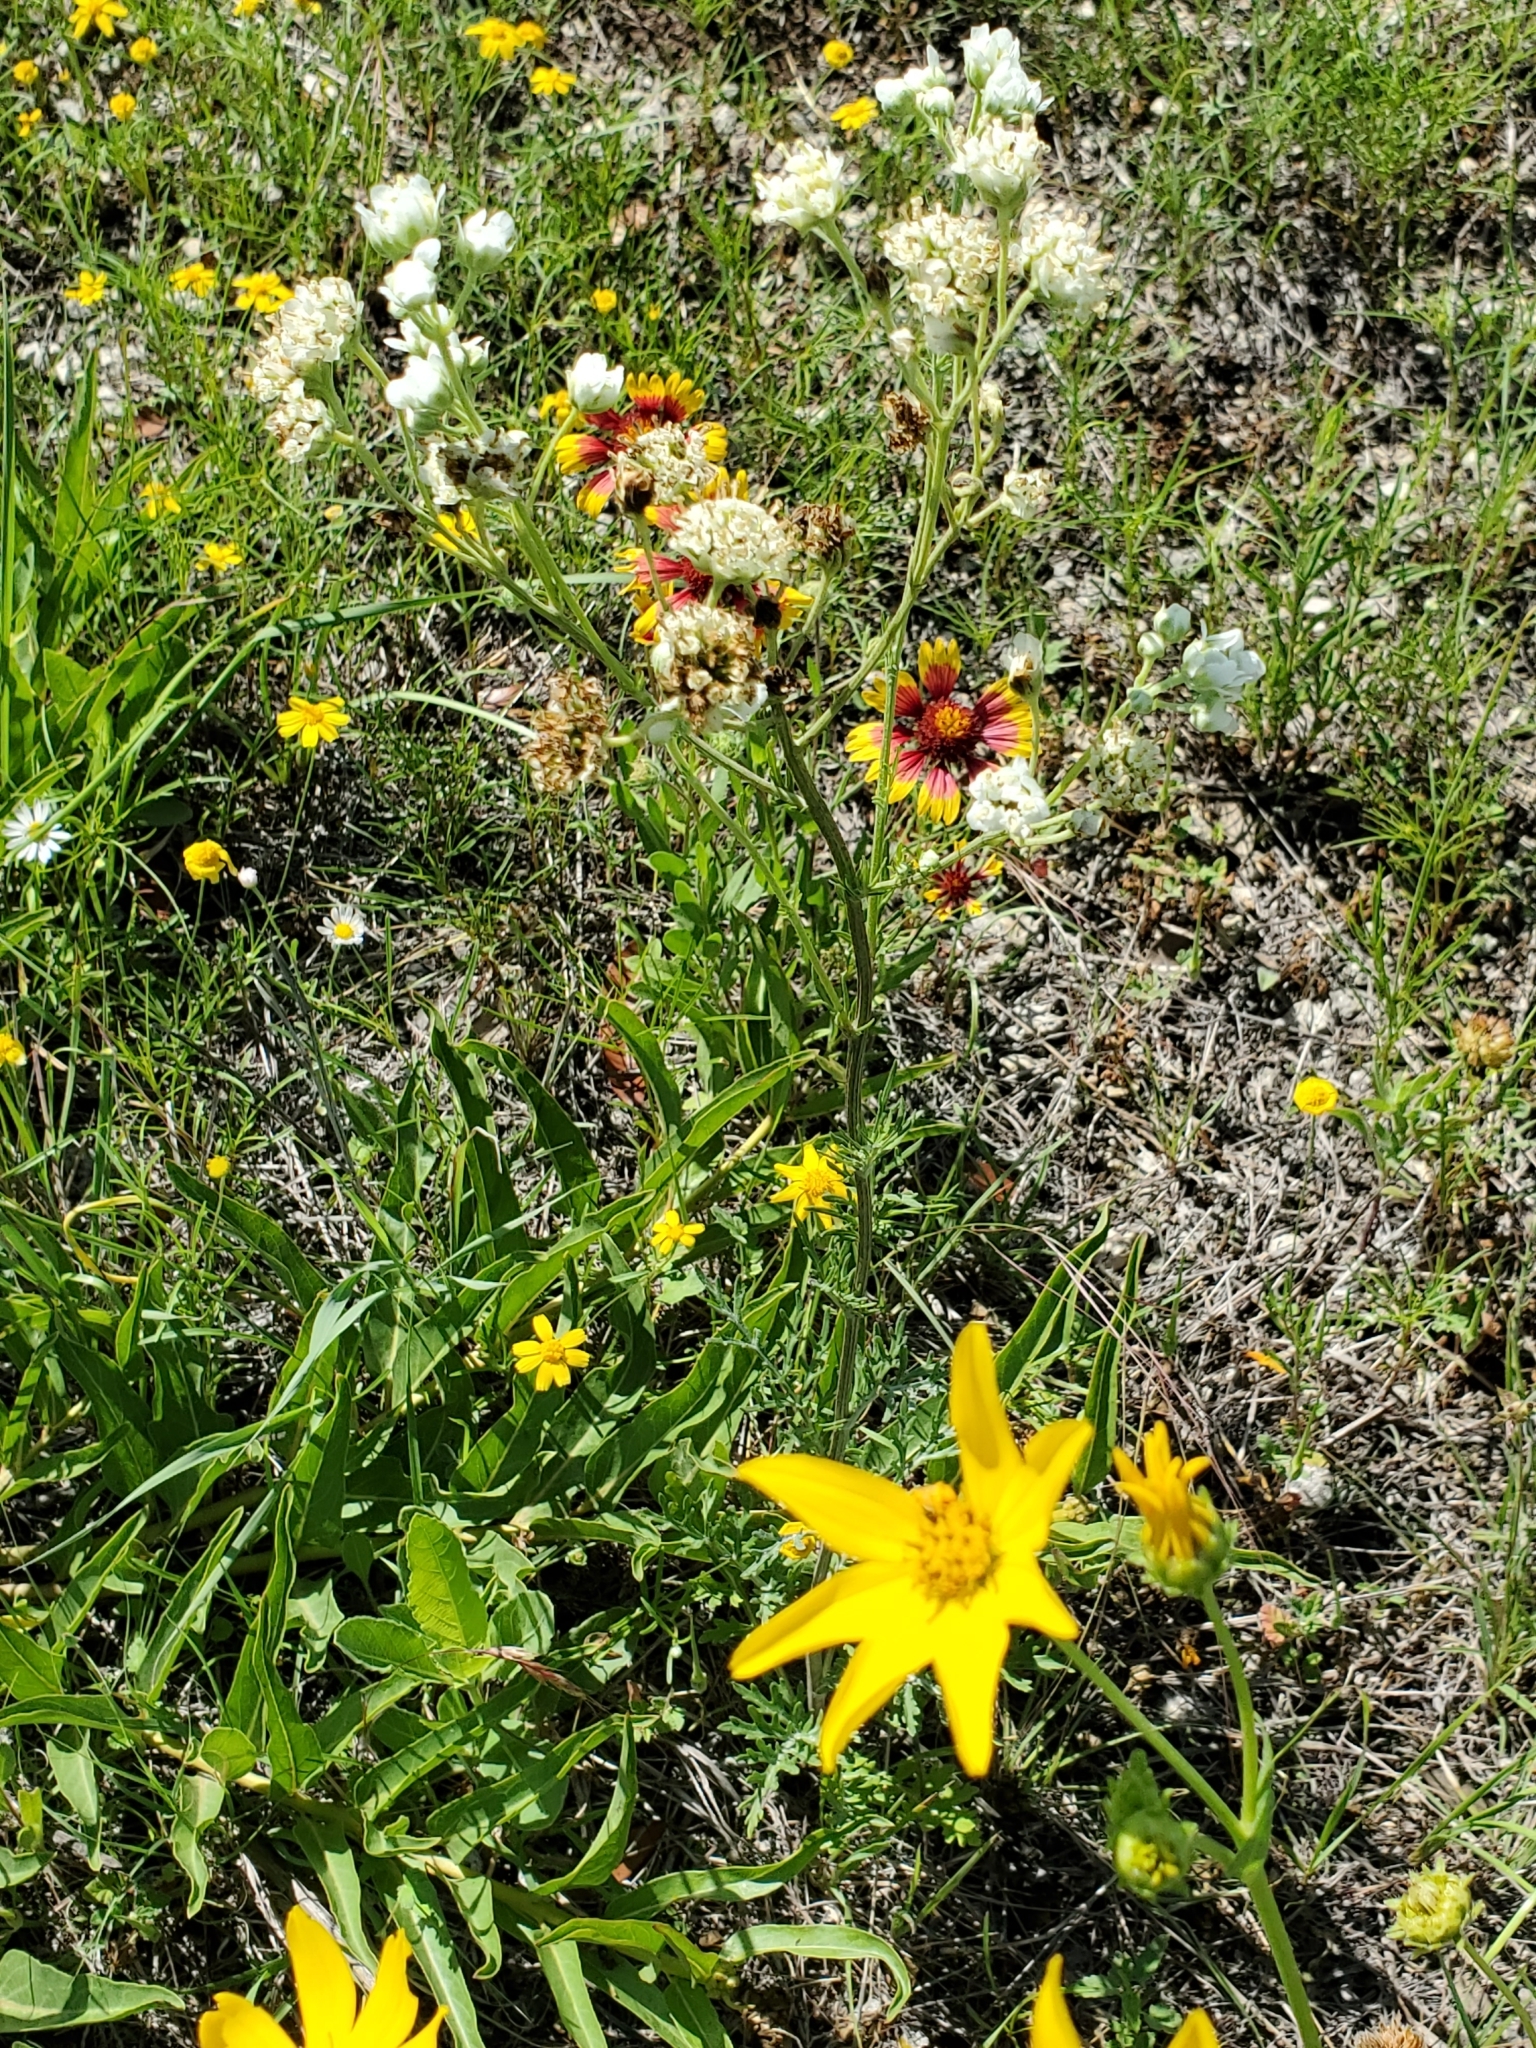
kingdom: Plantae
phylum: Tracheophyta
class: Magnoliopsida
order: Asterales
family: Asteraceae
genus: Hymenopappus
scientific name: Hymenopappus scabiosaeus
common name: Carolina woollywhite
